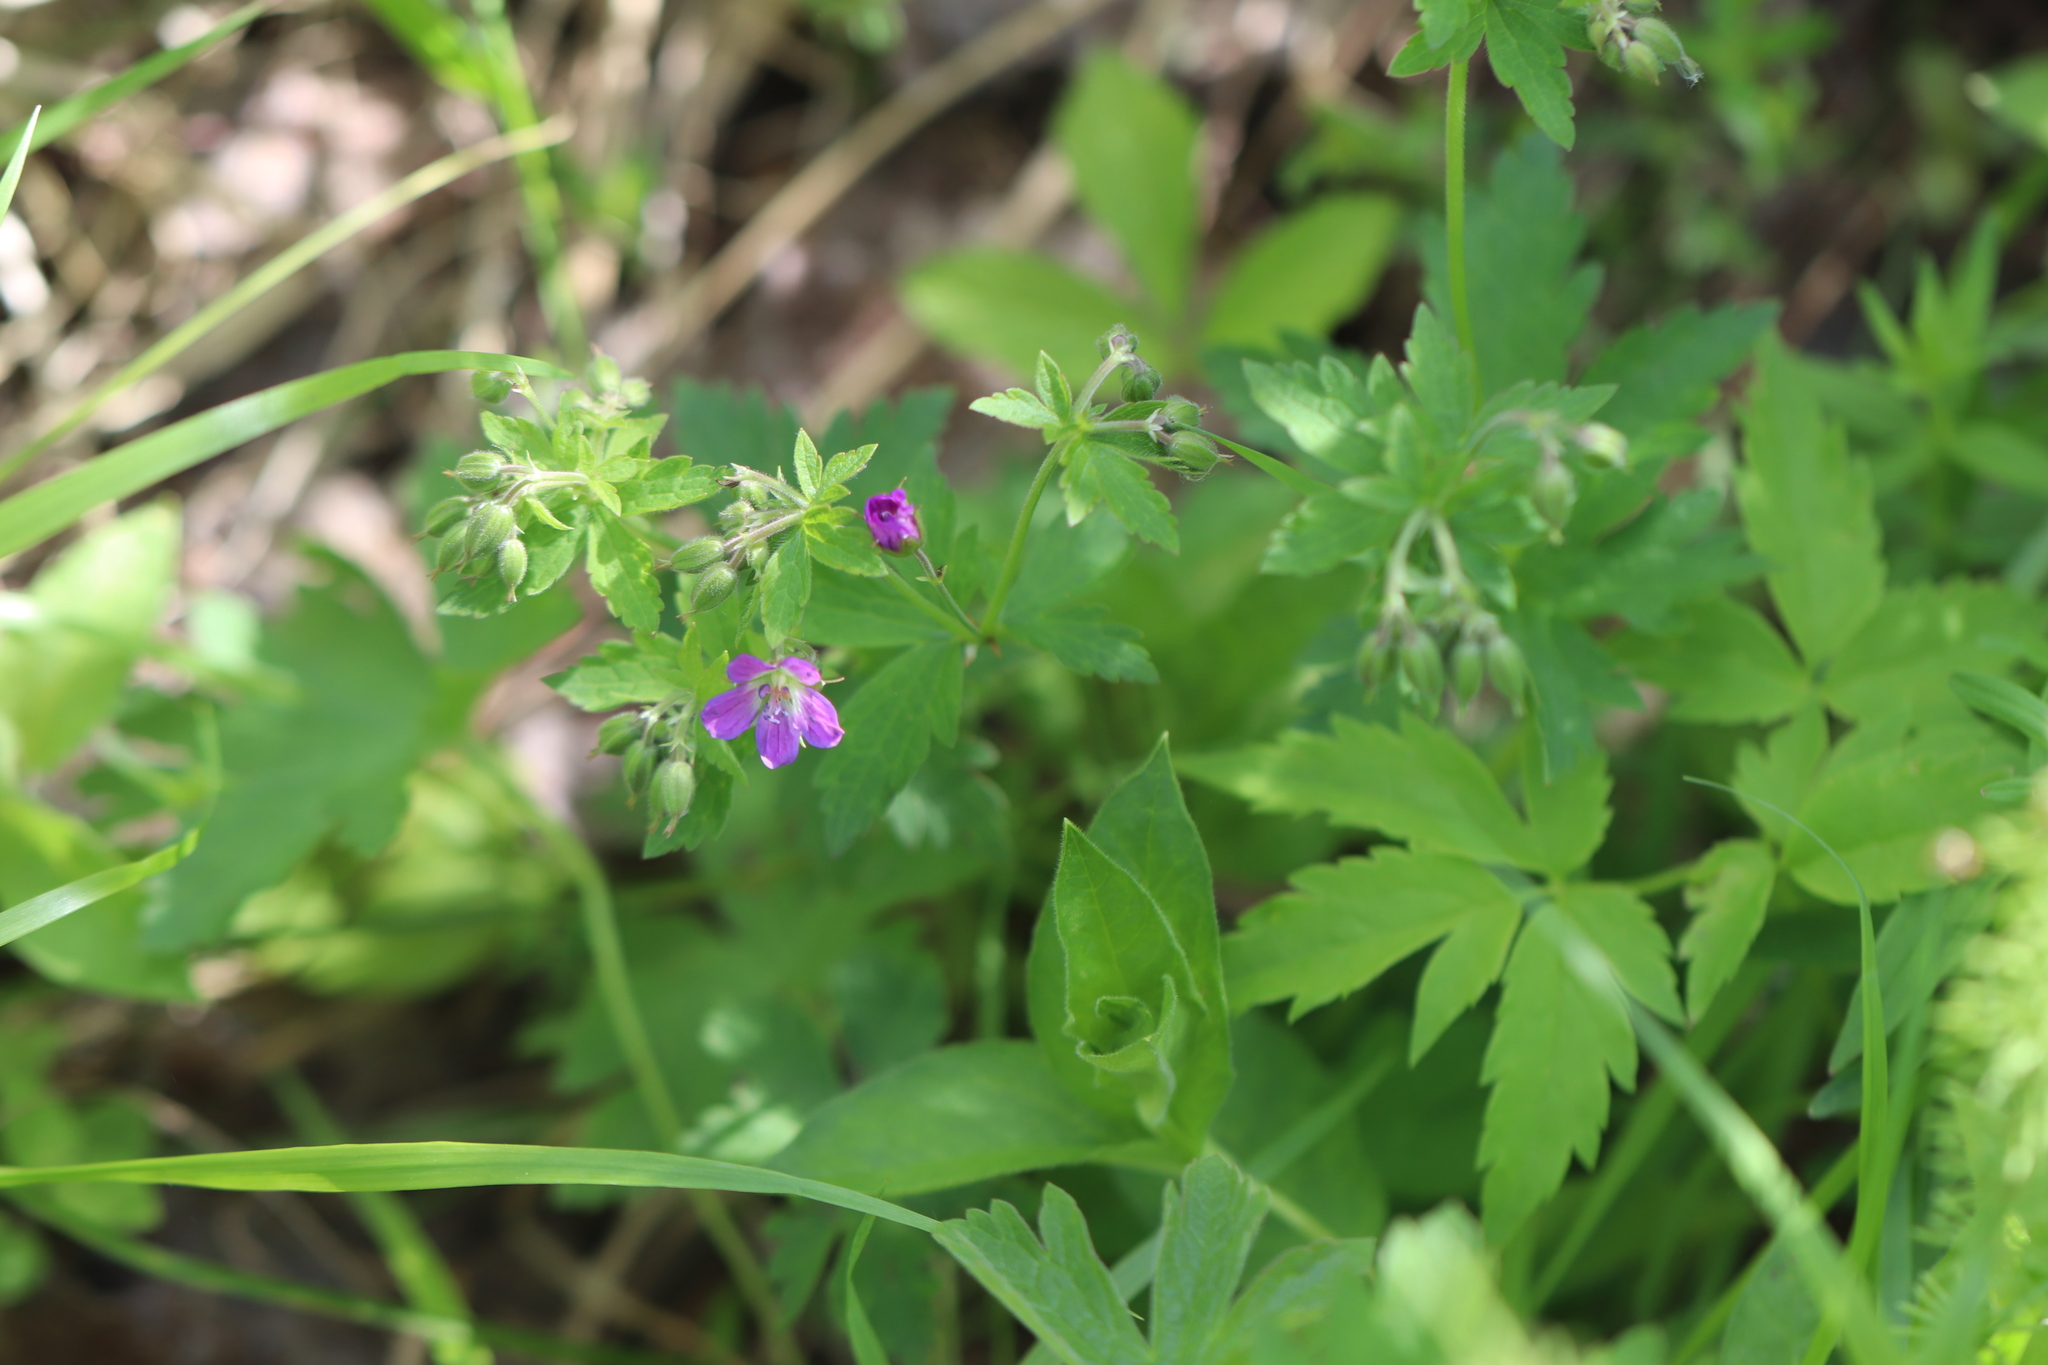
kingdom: Plantae
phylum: Tracheophyta
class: Magnoliopsida
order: Geraniales
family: Geraniaceae
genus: Geranium
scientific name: Geranium sylvaticum
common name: Wood crane's-bill
